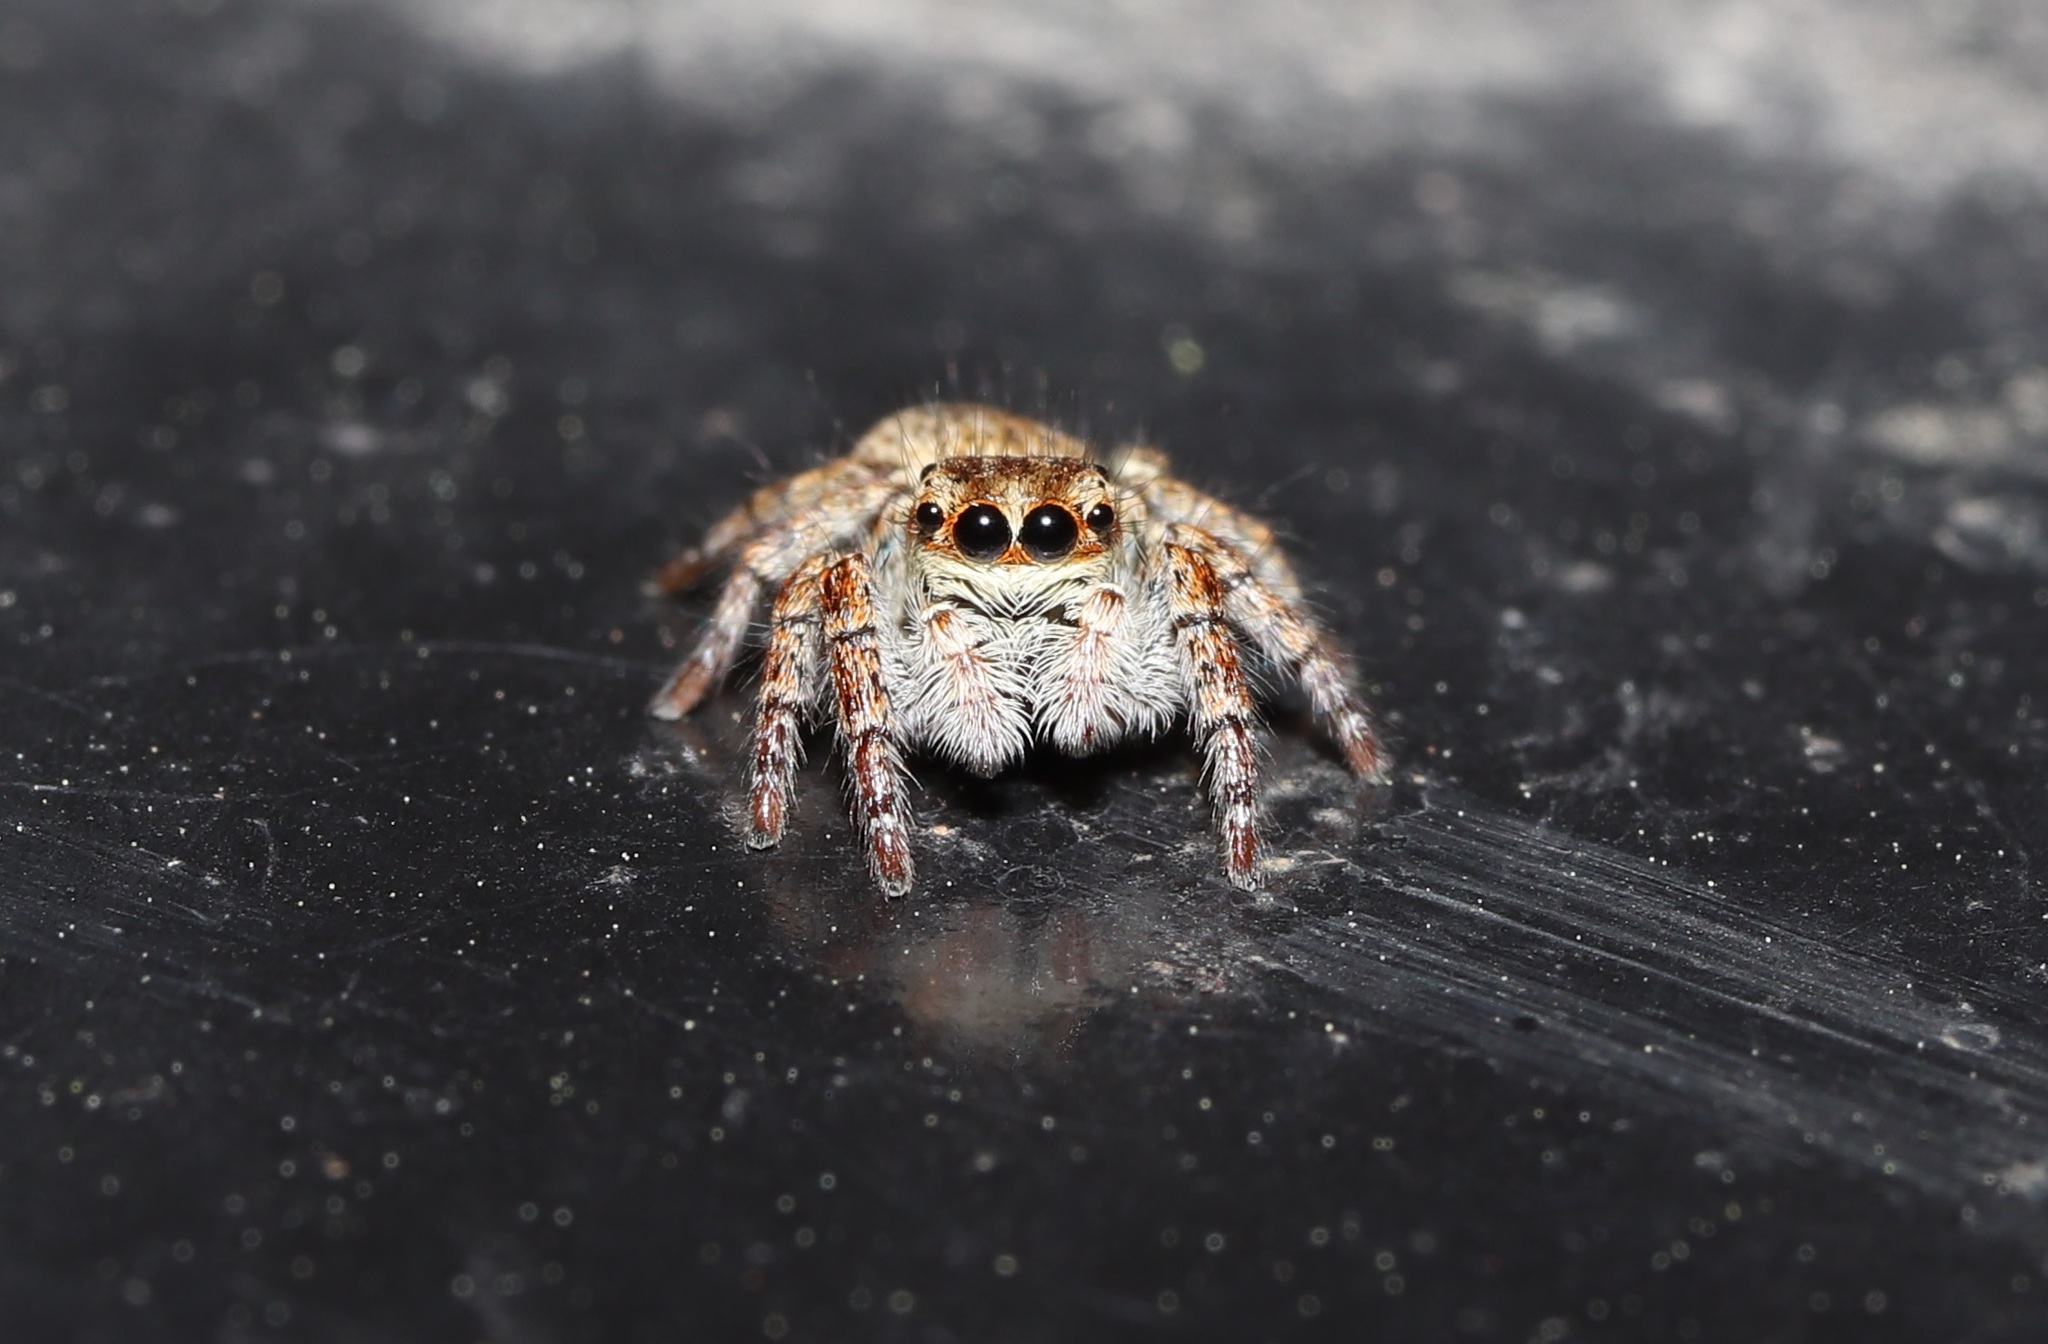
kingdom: Animalia
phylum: Arthropoda
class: Arachnida
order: Araneae
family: Salticidae
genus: Carrhotus
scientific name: Carrhotus xanthogramma
